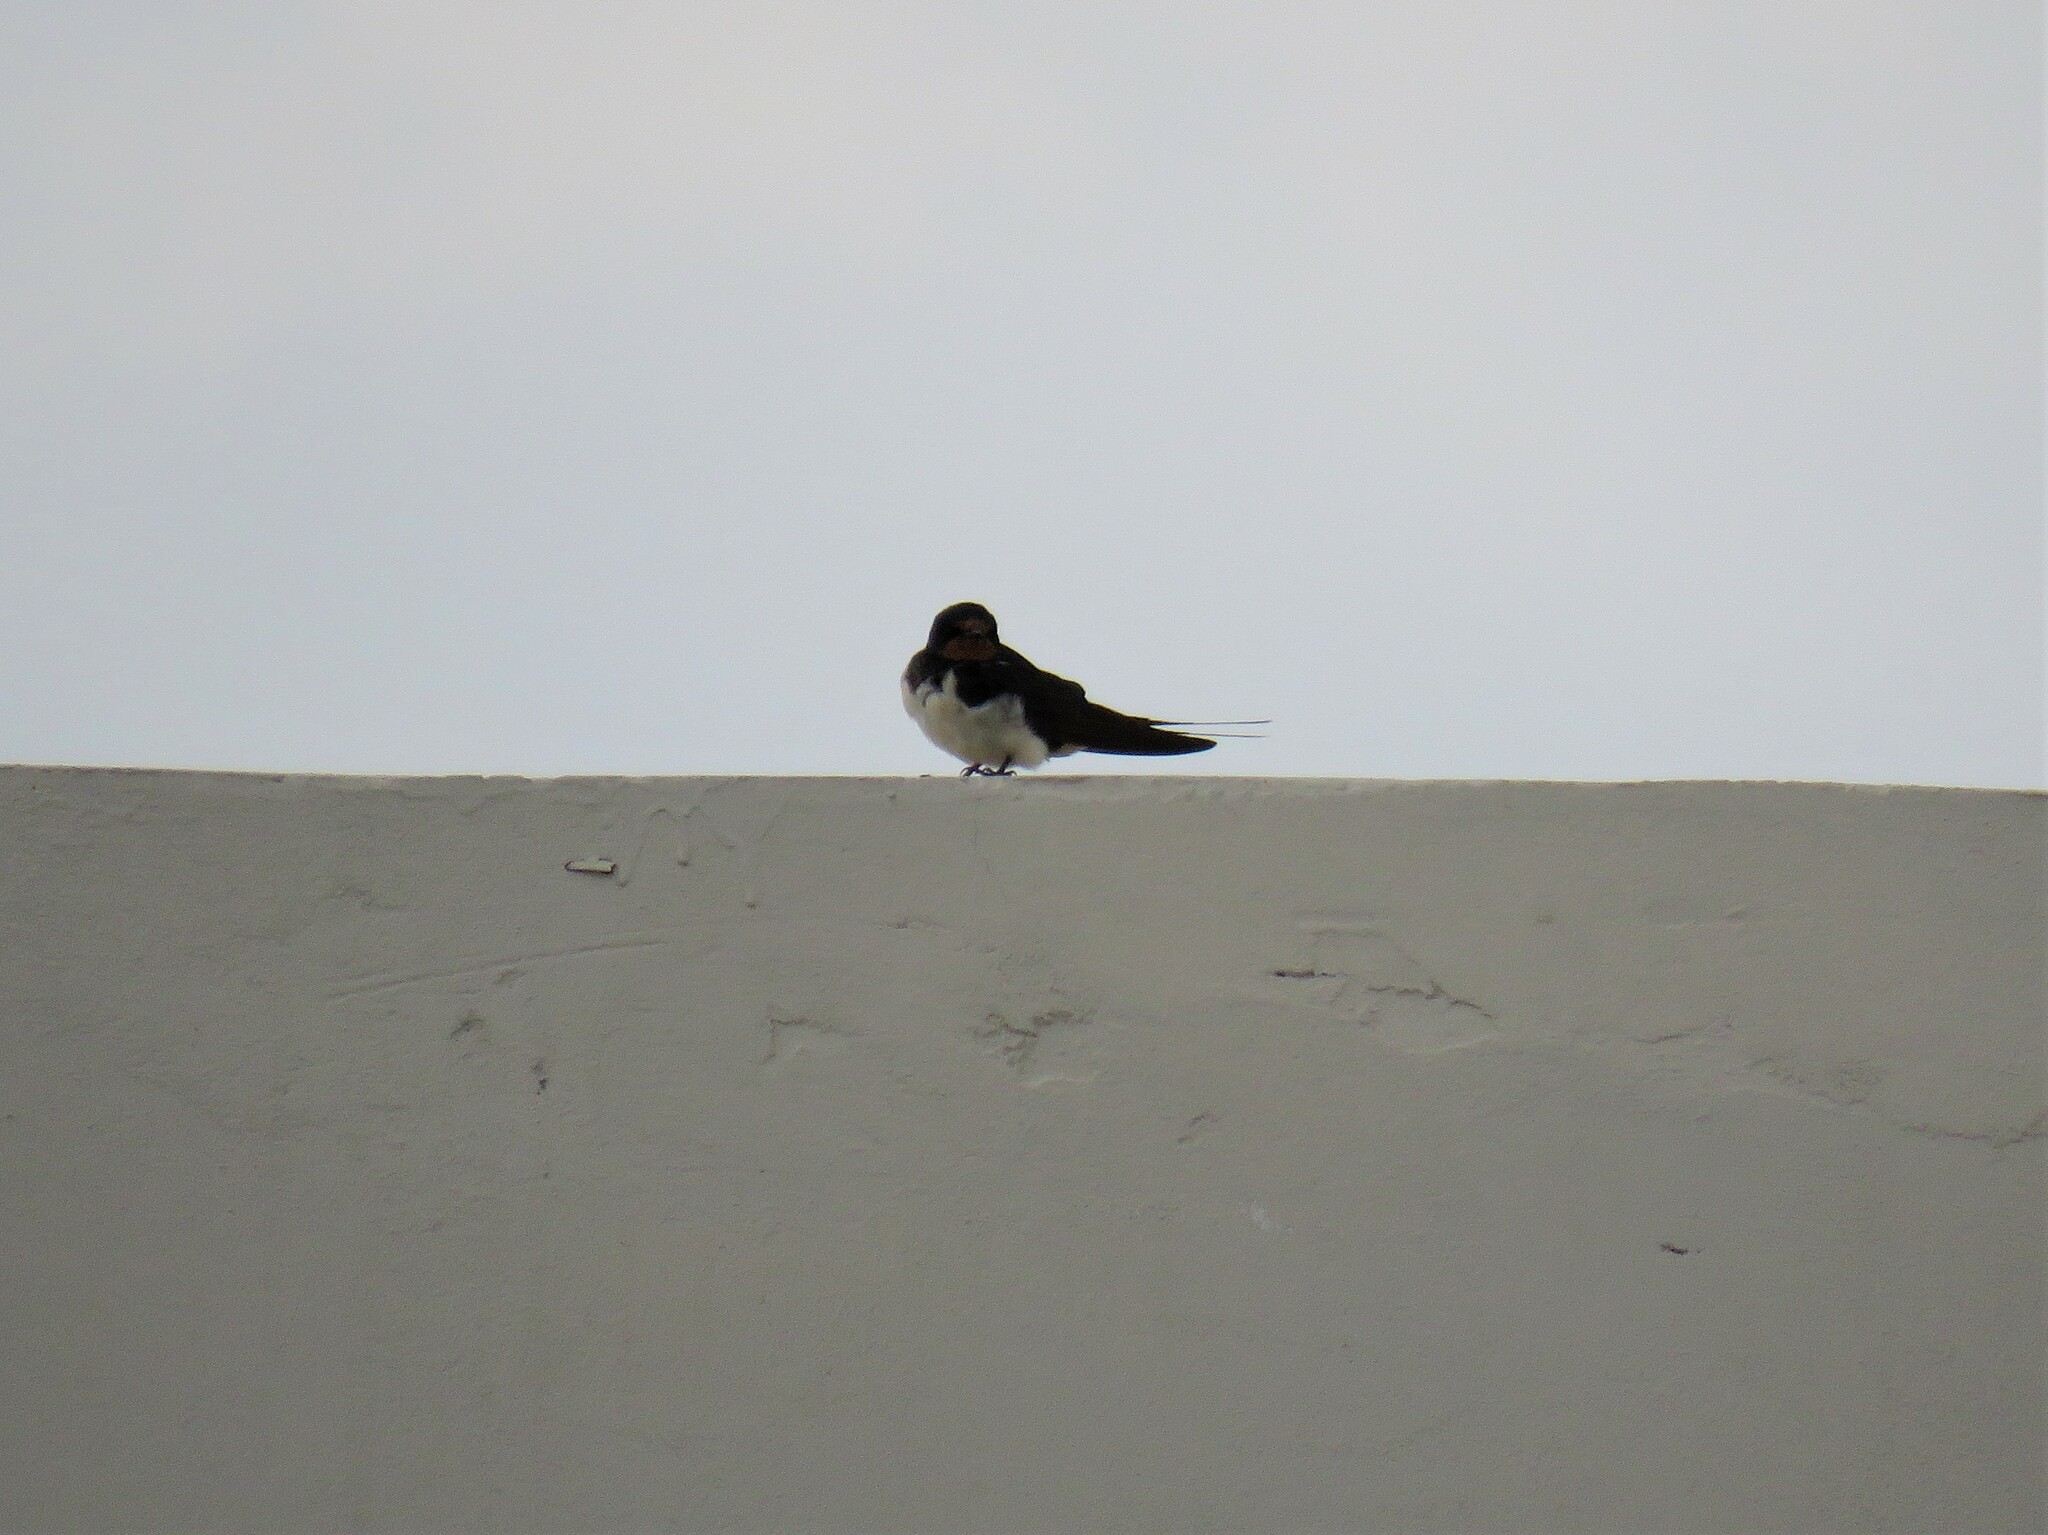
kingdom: Animalia
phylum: Chordata
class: Aves
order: Passeriformes
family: Hirundinidae
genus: Hirundo
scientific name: Hirundo rustica
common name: Barn swallow
